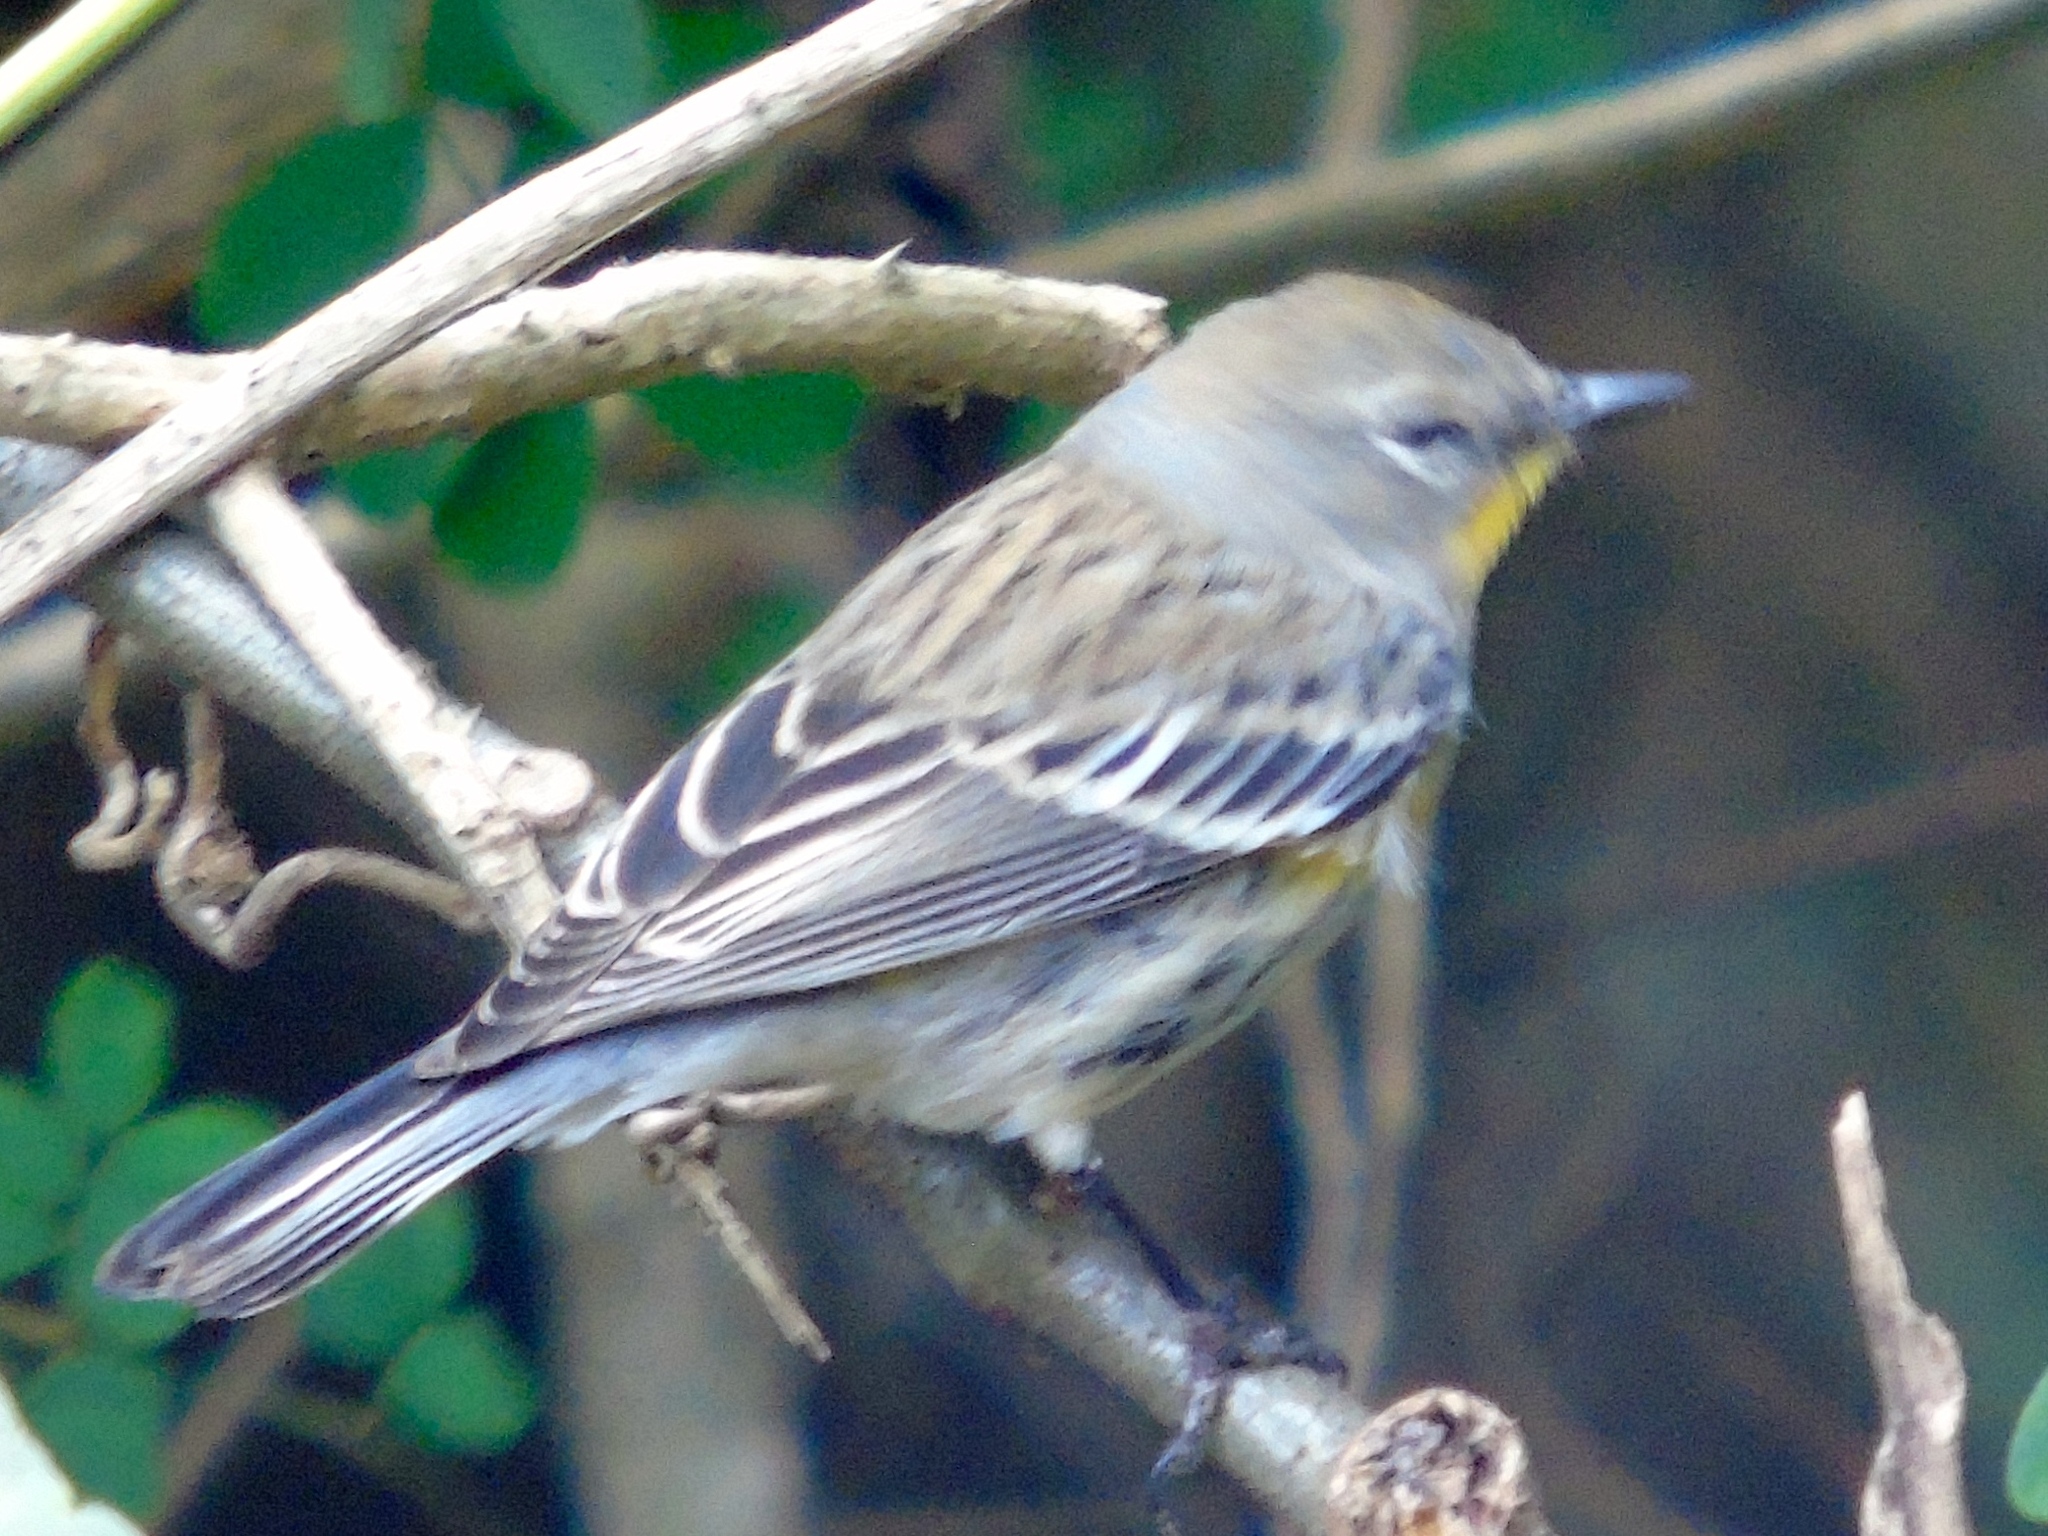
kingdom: Animalia
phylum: Chordata
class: Aves
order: Passeriformes
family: Parulidae
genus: Setophaga
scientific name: Setophaga coronata
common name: Myrtle warbler
